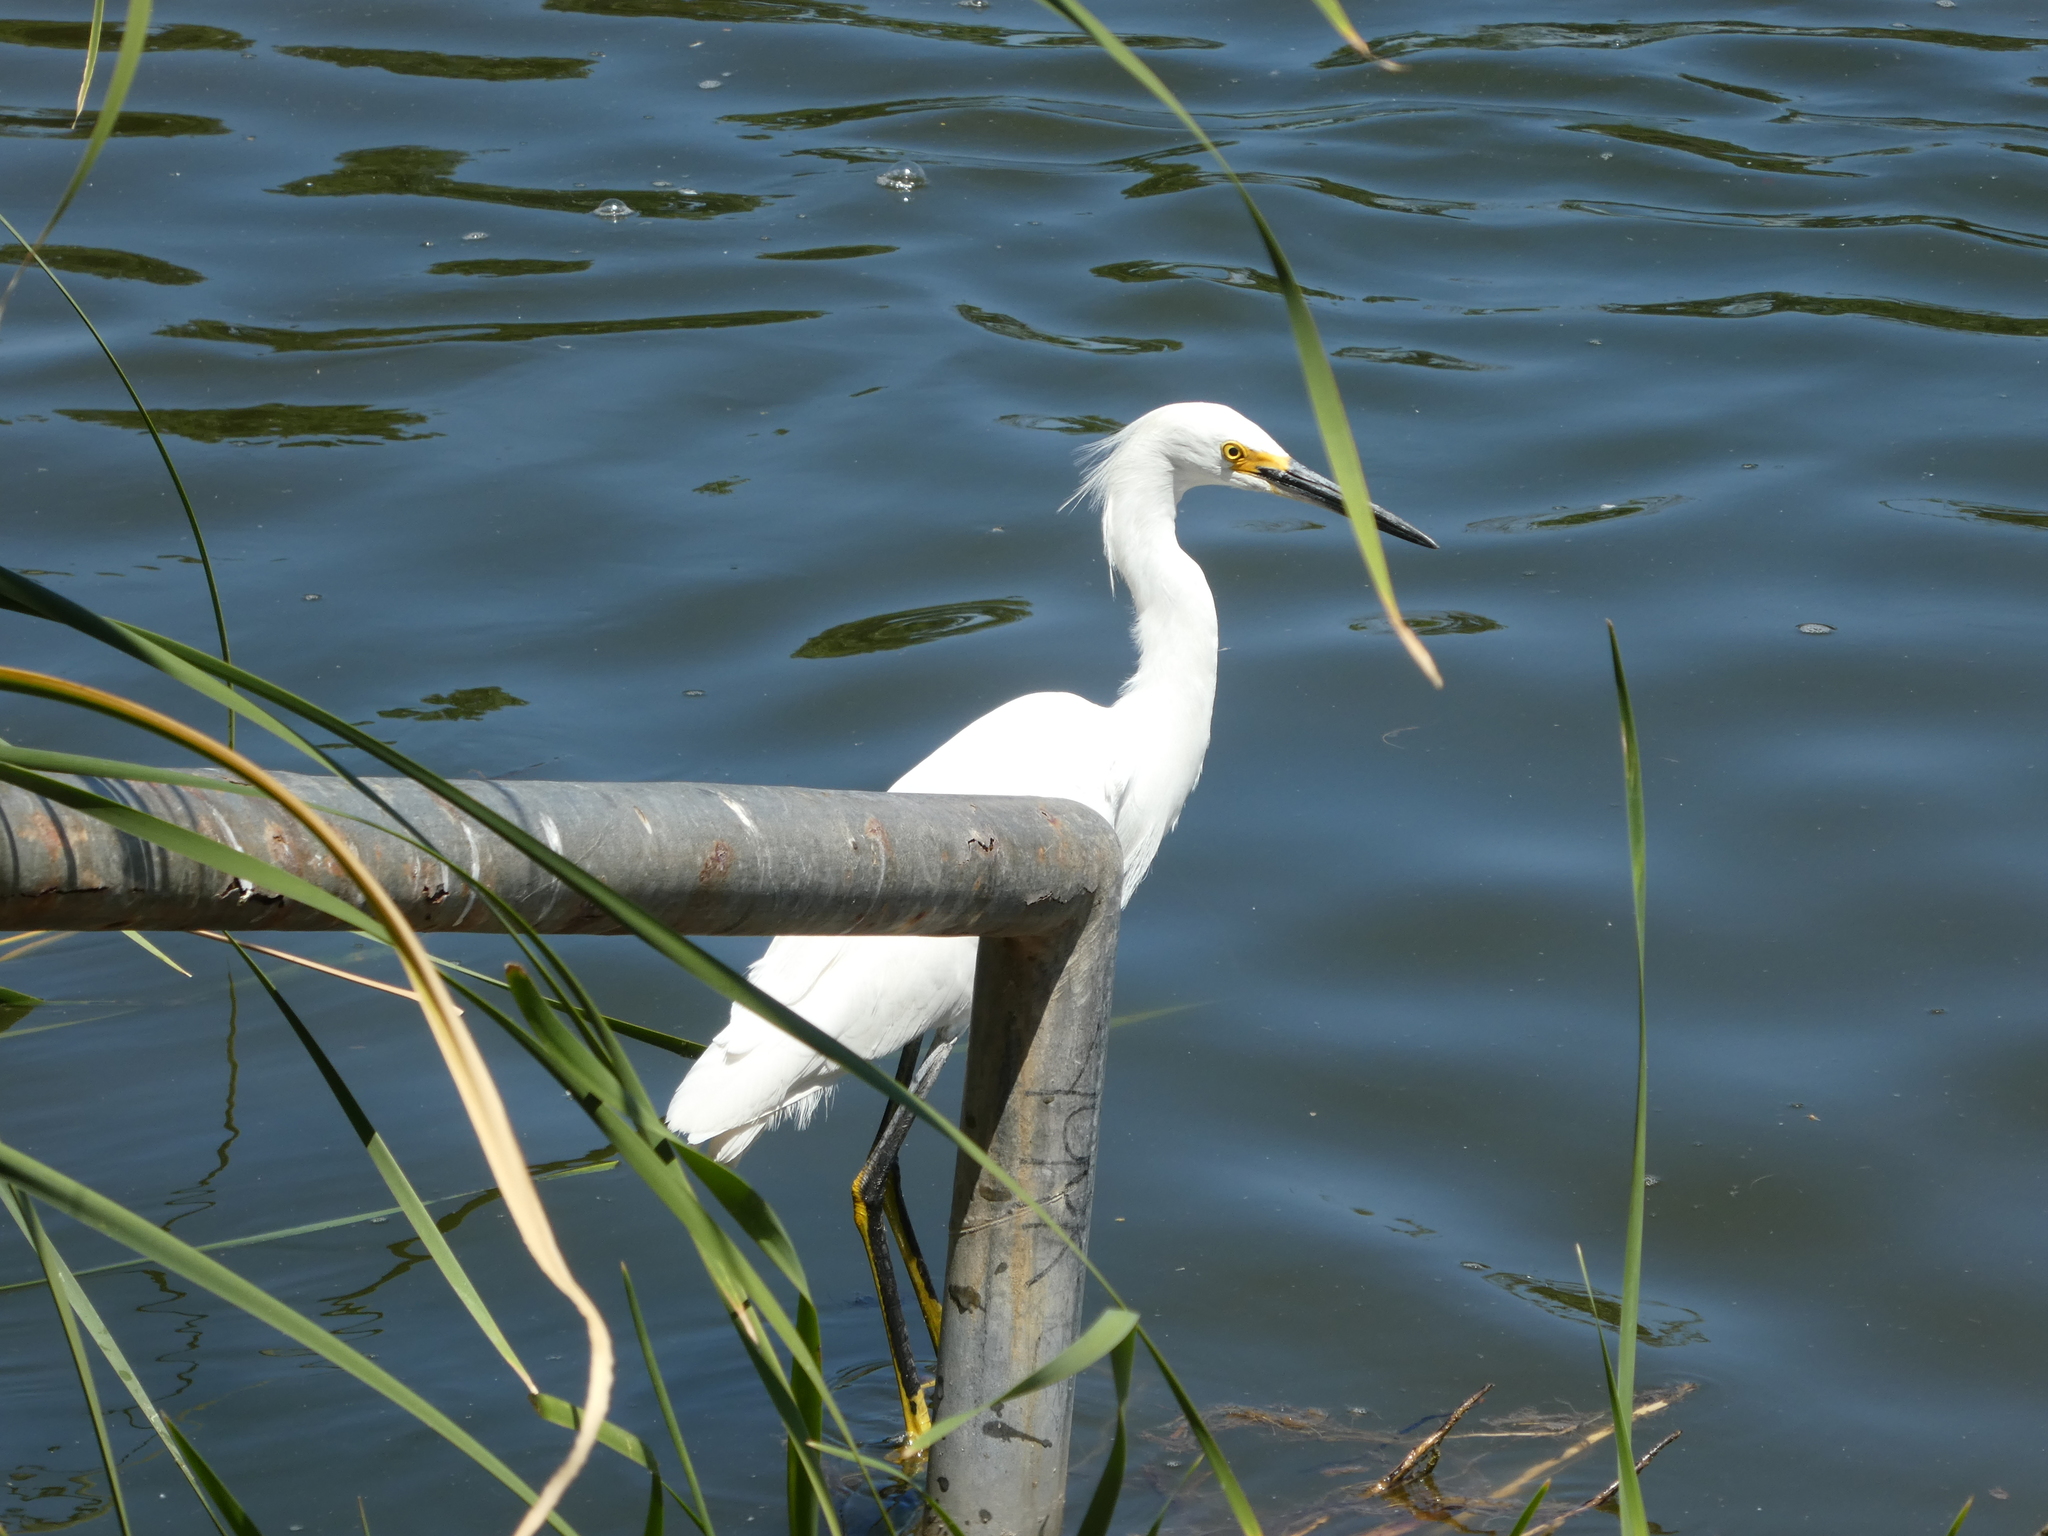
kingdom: Animalia
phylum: Chordata
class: Aves
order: Pelecaniformes
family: Ardeidae
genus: Egretta
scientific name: Egretta thula
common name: Snowy egret
